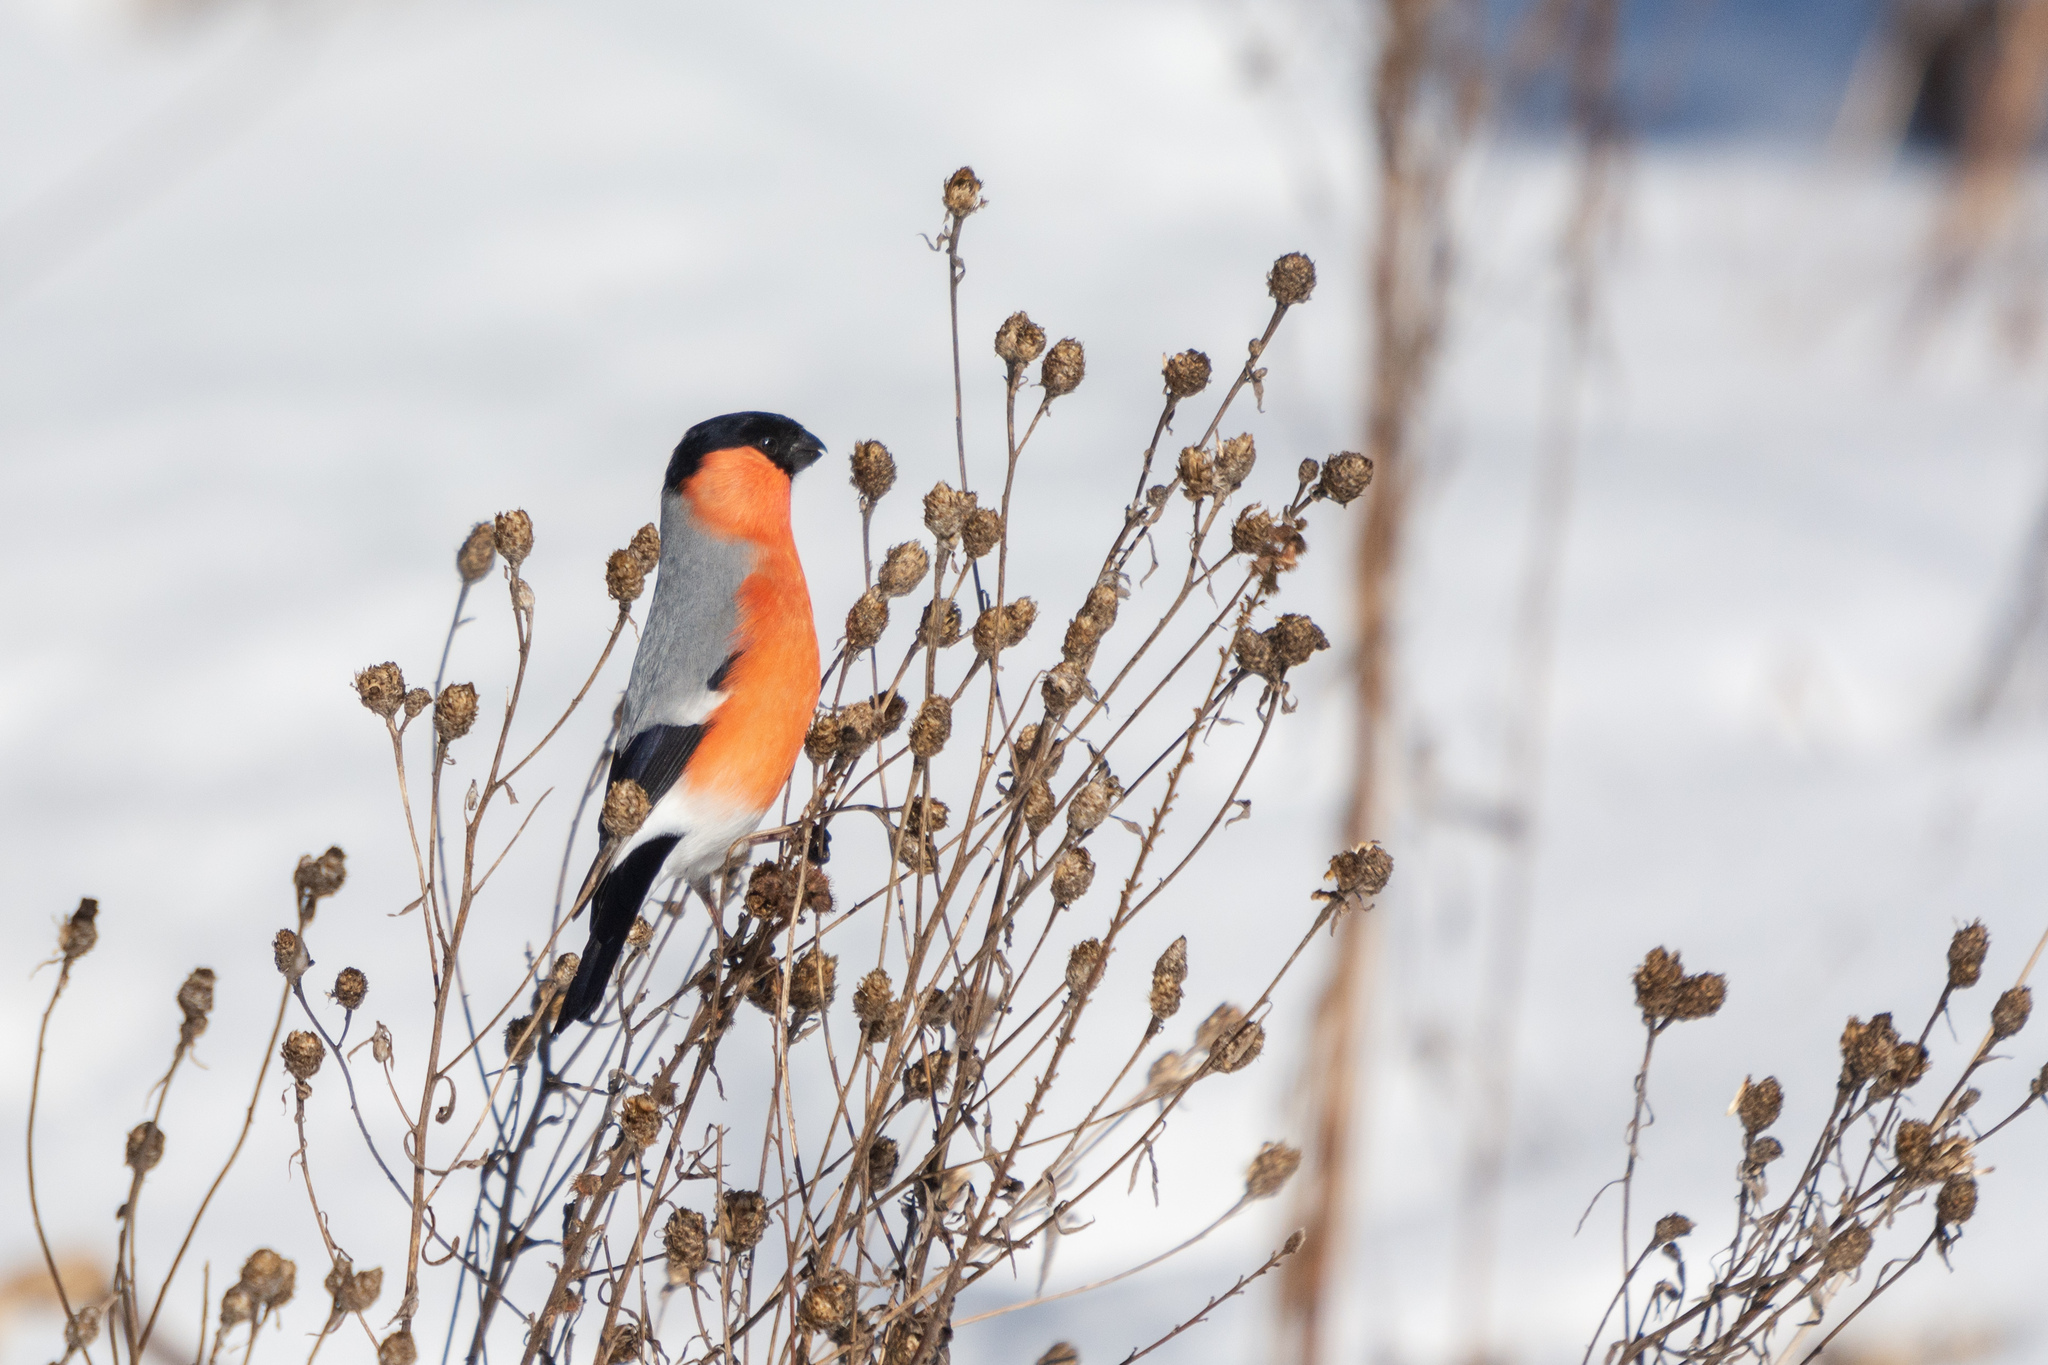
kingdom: Animalia
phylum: Chordata
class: Aves
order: Passeriformes
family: Fringillidae
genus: Pyrrhula
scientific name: Pyrrhula pyrrhula
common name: Eurasian bullfinch
